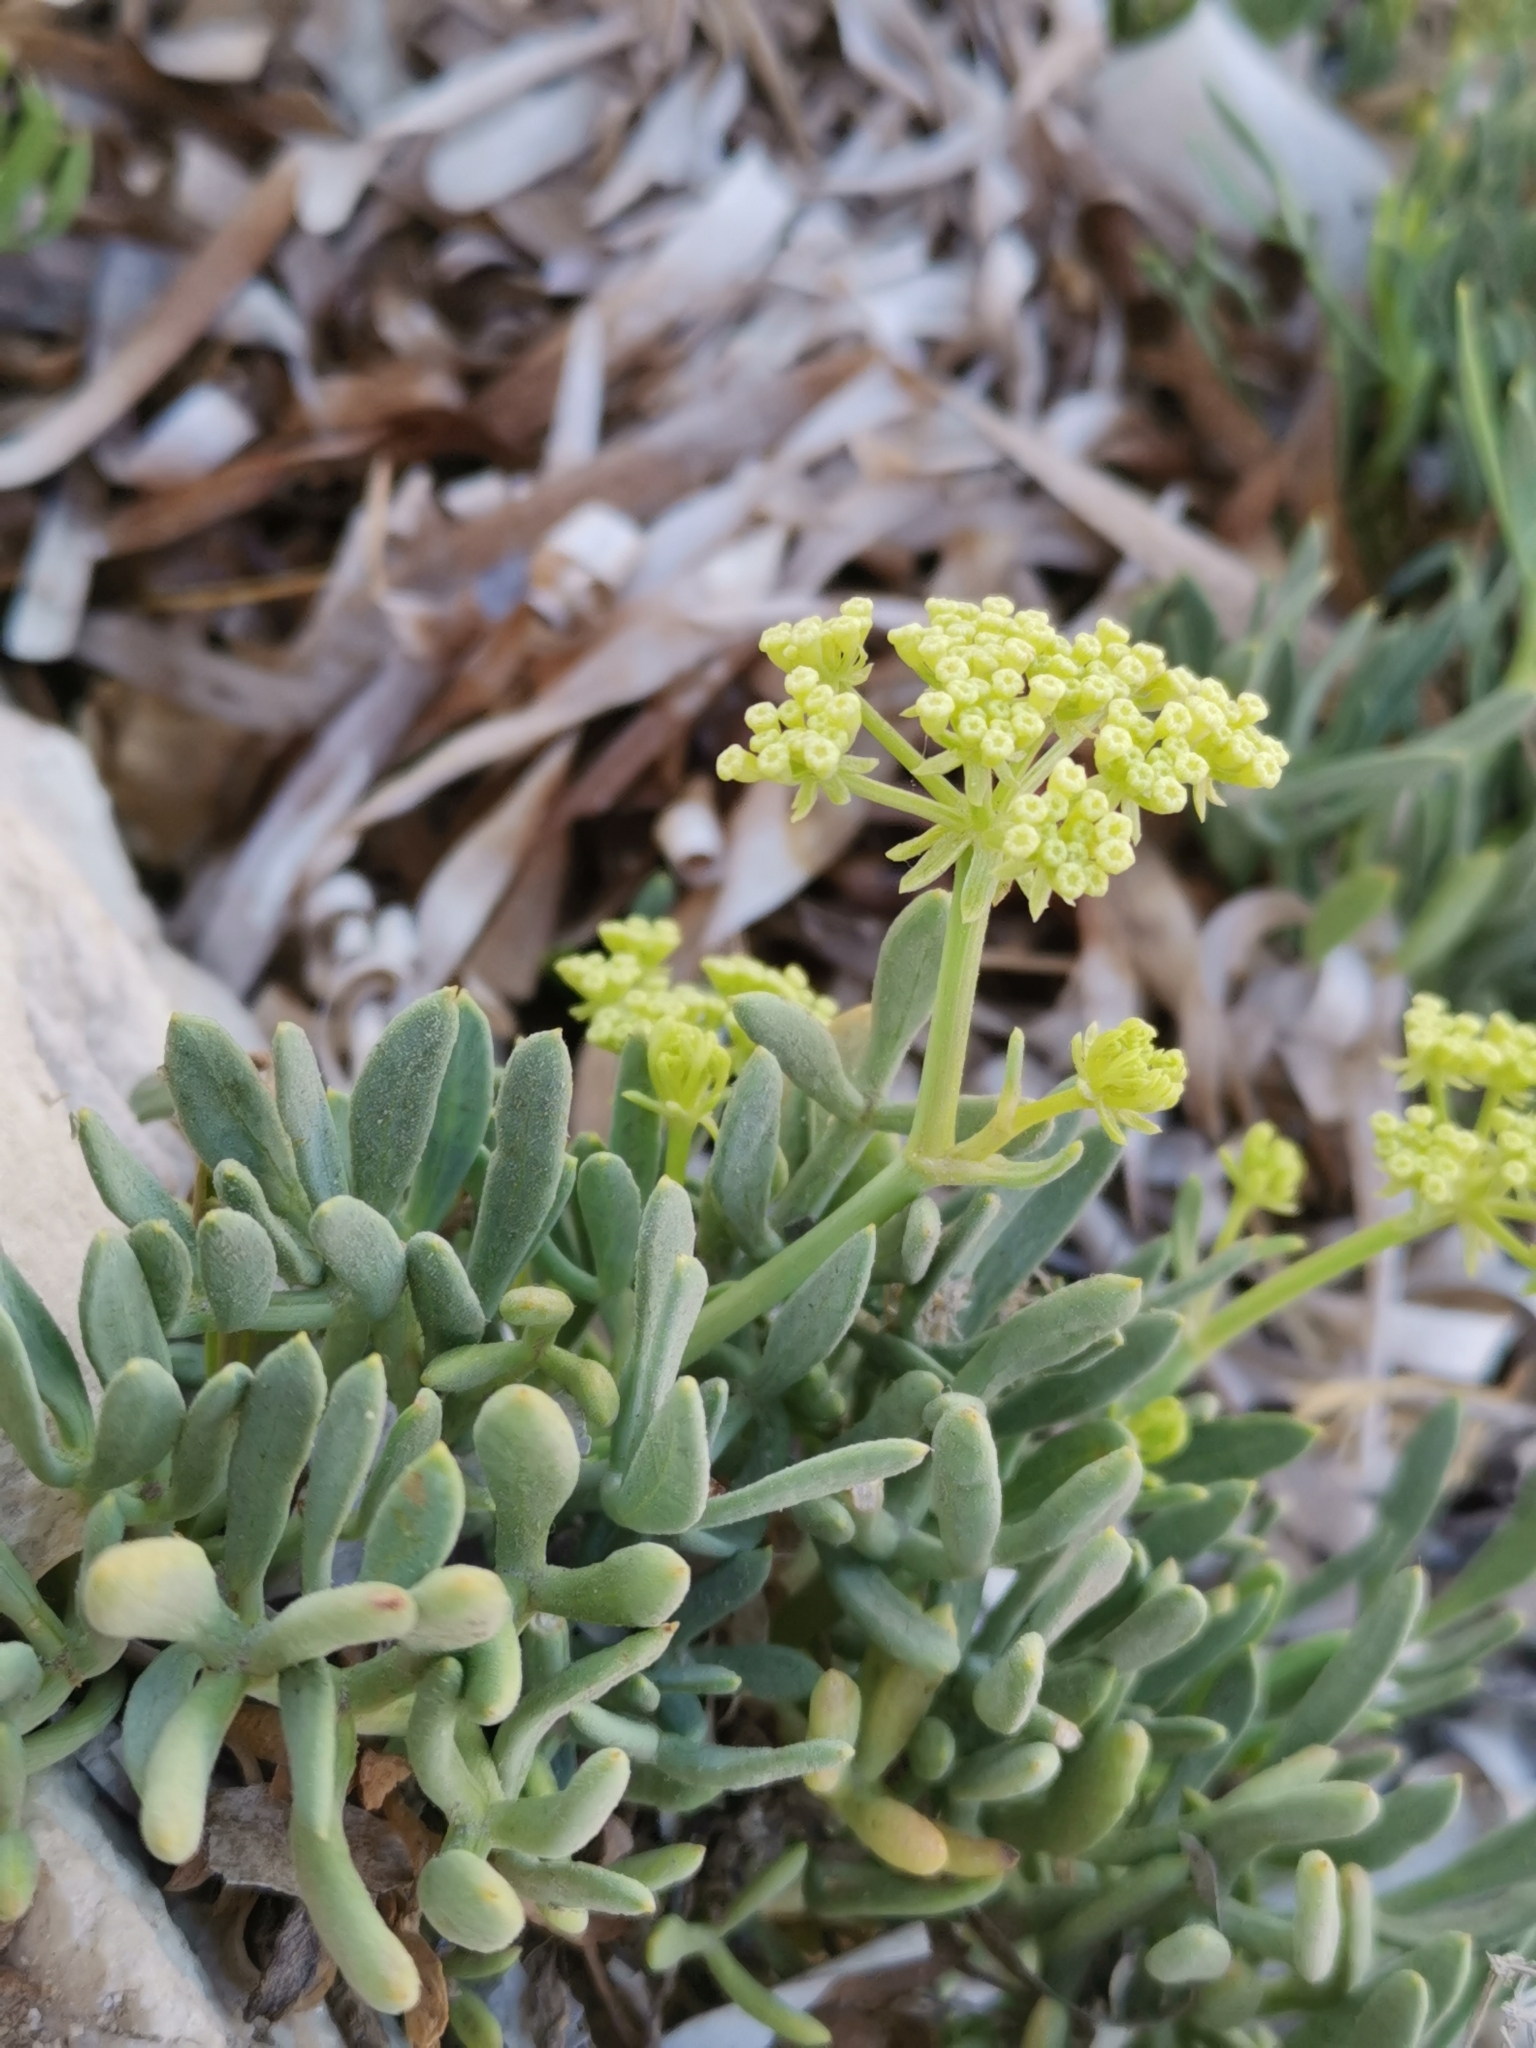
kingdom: Plantae
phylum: Tracheophyta
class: Magnoliopsida
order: Apiales
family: Apiaceae
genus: Crithmum
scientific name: Crithmum maritimum
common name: Rock samphire
